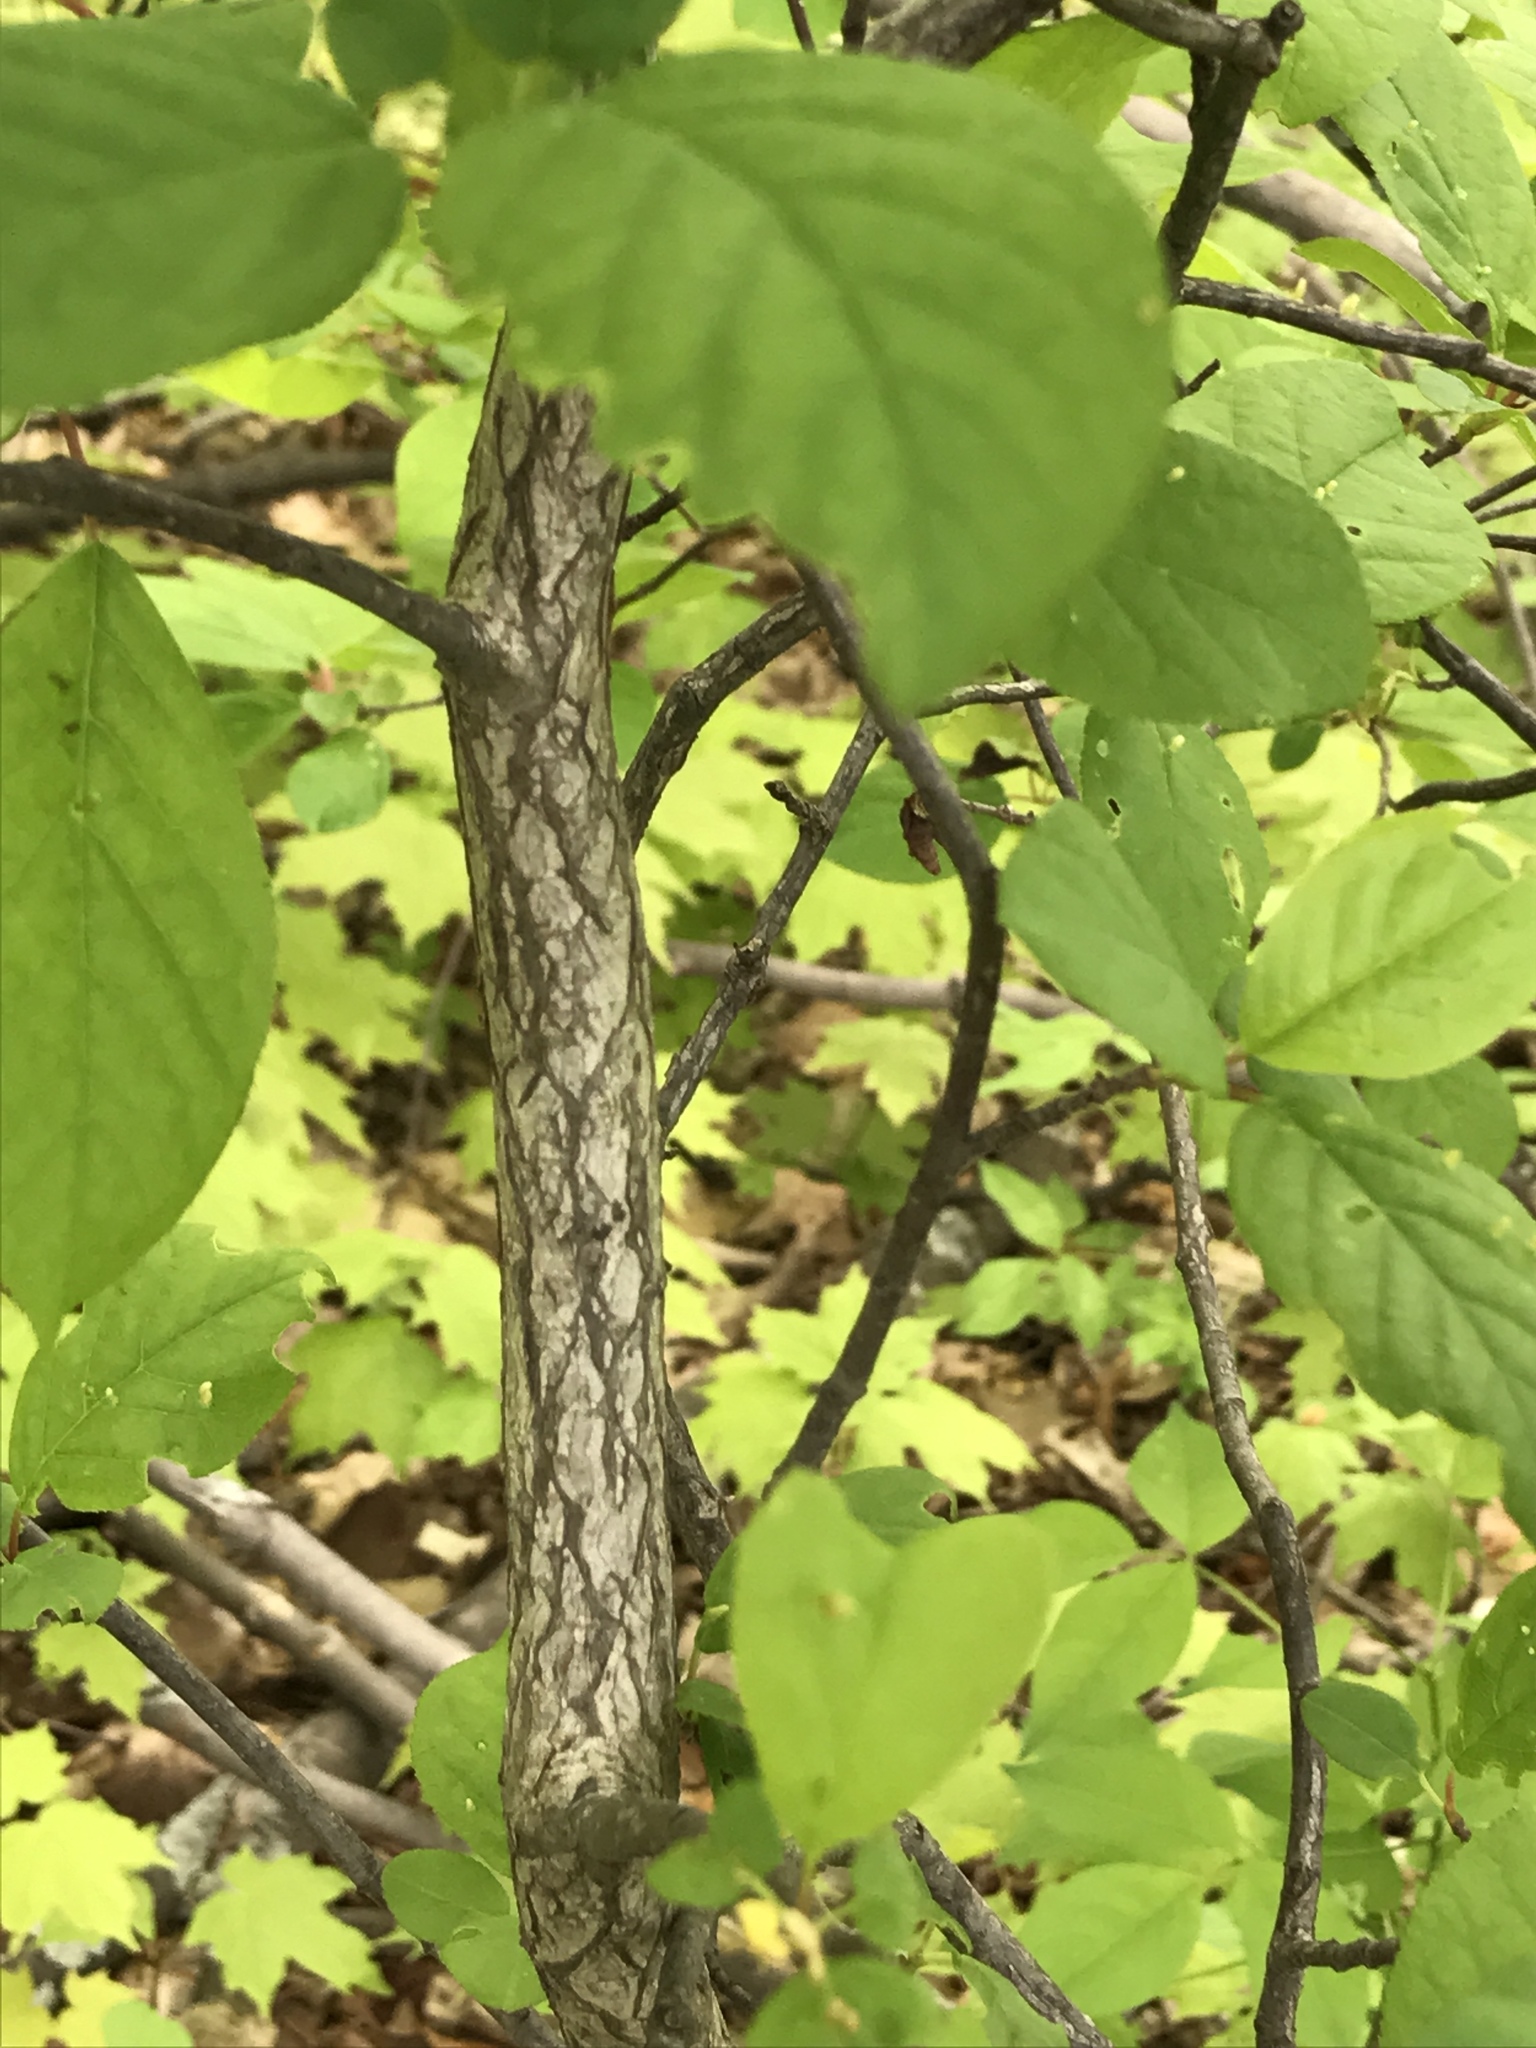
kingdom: Plantae
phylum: Tracheophyta
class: Magnoliopsida
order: Rosales
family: Rosaceae
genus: Prunus
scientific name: Prunus virginiana
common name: Chokecherry
